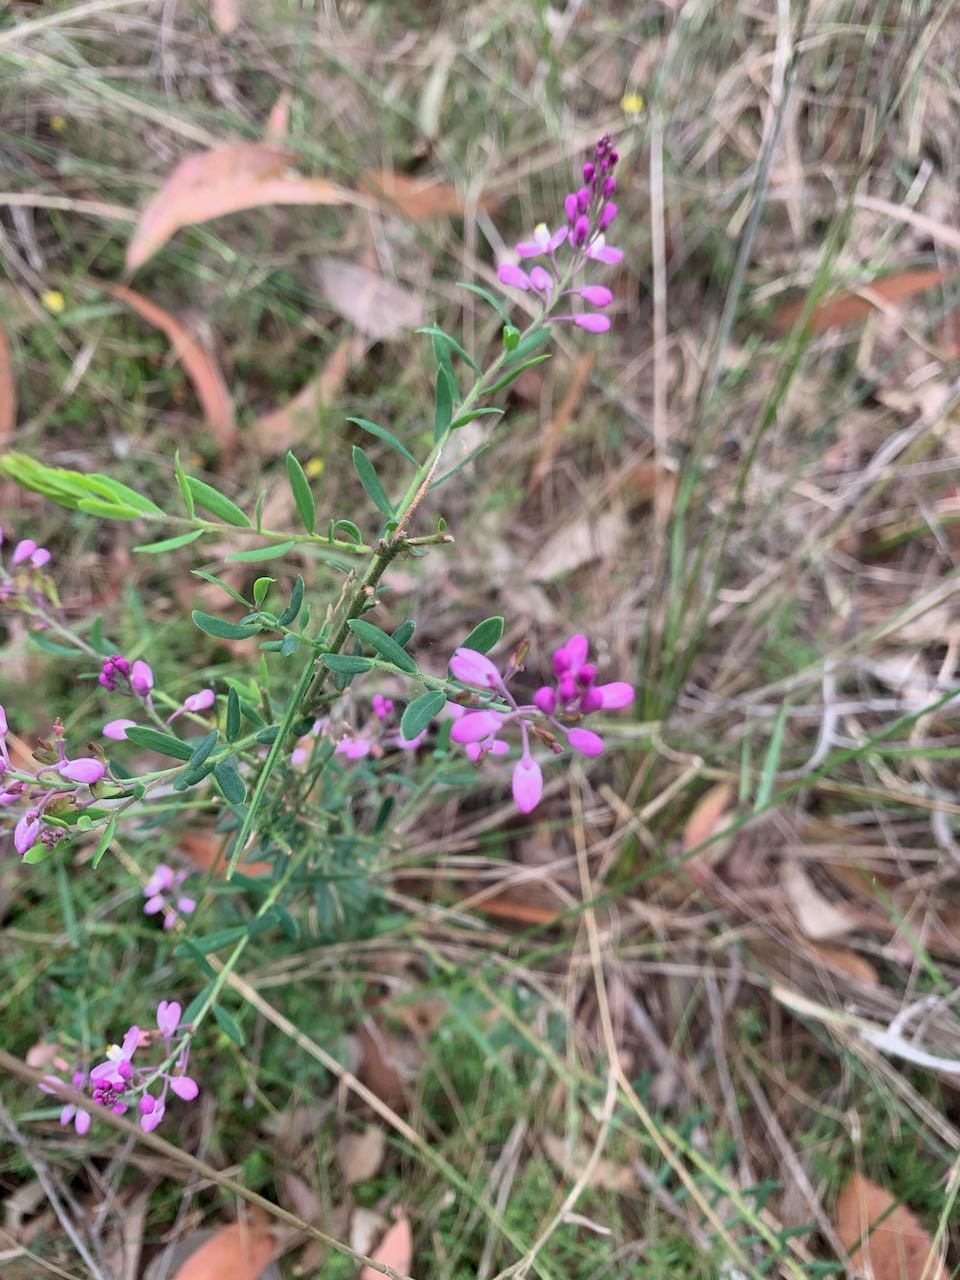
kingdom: Plantae
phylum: Tracheophyta
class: Magnoliopsida
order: Fabales
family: Polygalaceae
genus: Comesperma
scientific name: Comesperma ericinum
